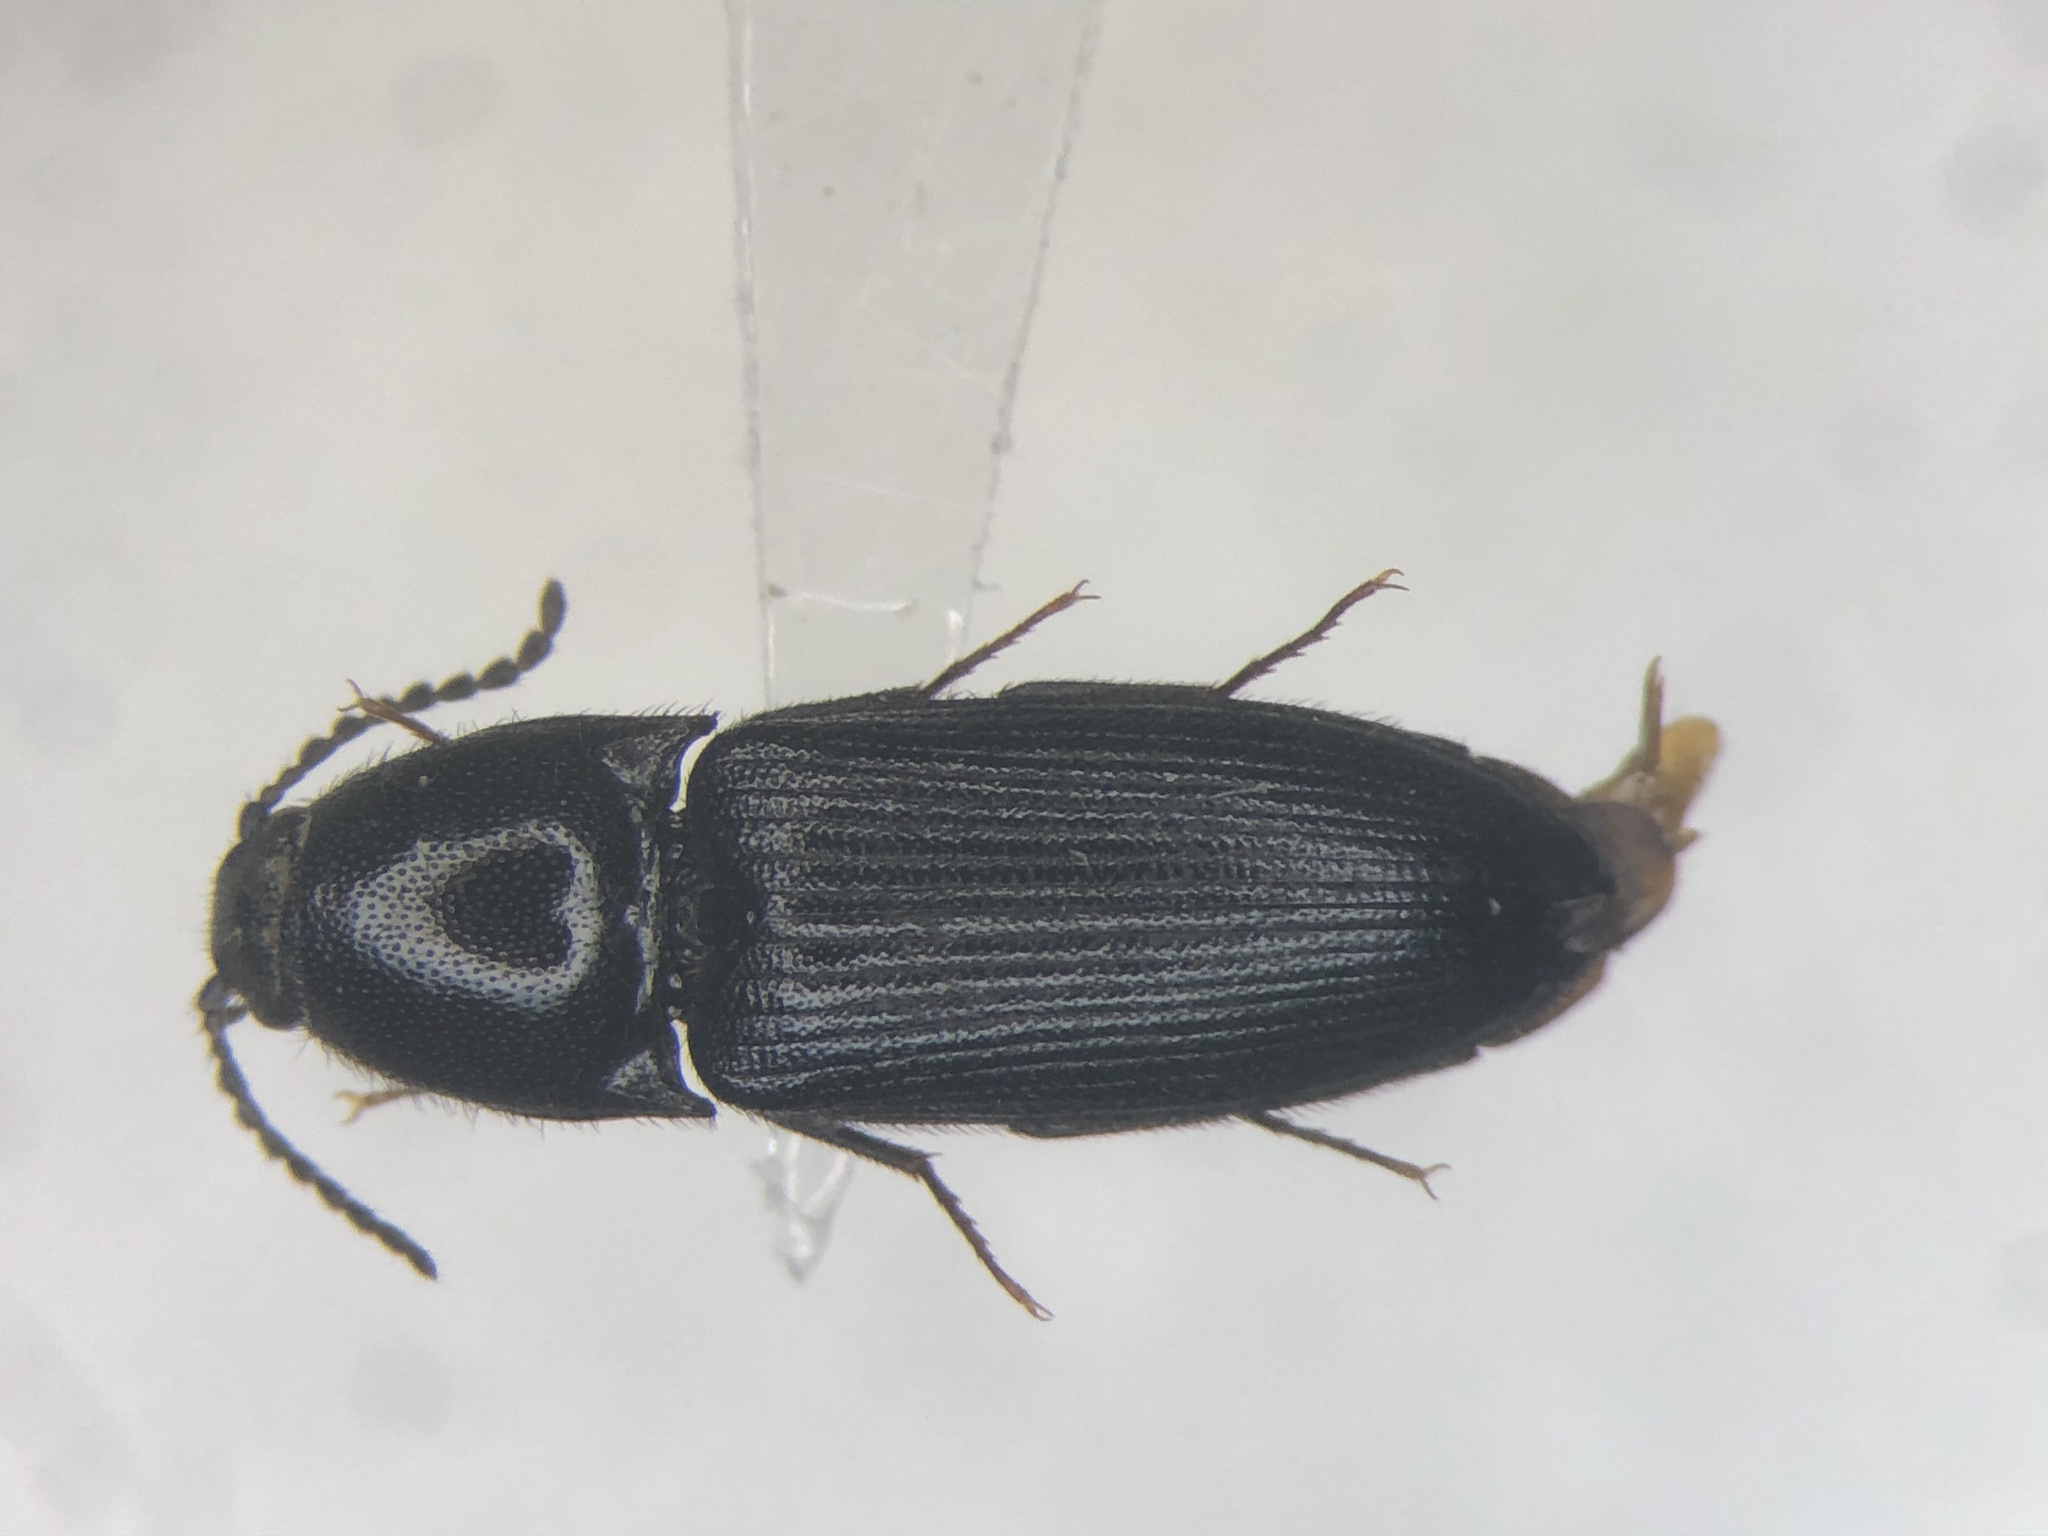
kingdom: Animalia
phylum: Arthropoda
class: Insecta
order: Coleoptera
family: Elateridae
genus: Ampedus
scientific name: Ampedus laurentinus
